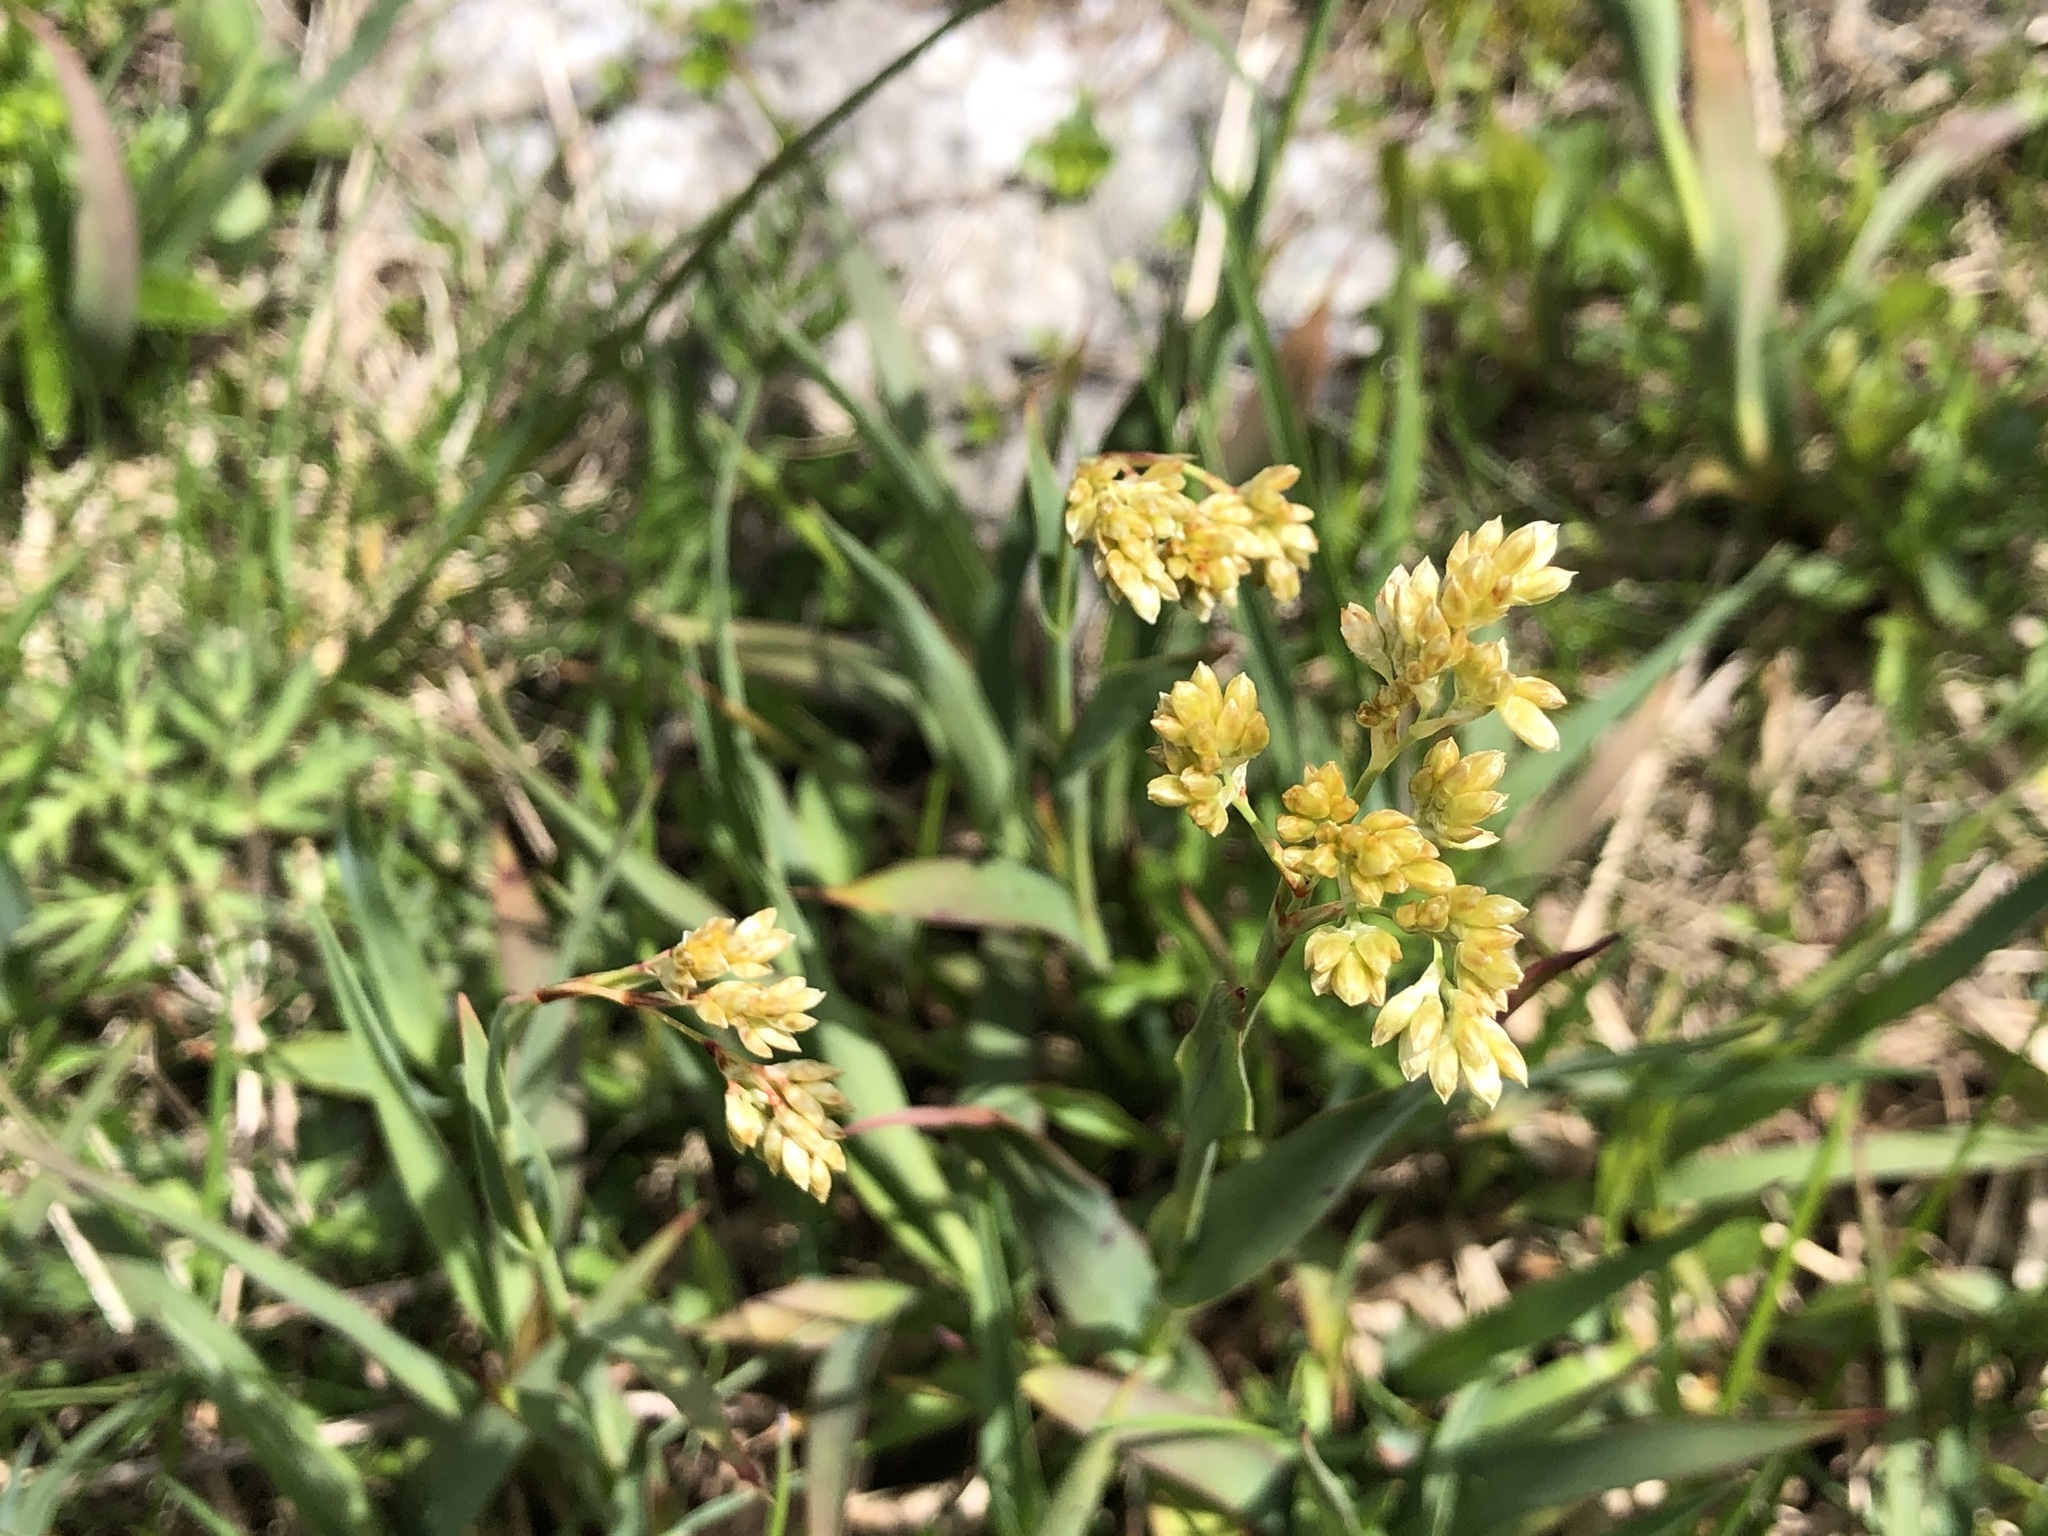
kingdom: Plantae
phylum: Tracheophyta
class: Liliopsida
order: Poales
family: Juncaceae
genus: Luzula
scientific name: Luzula lutea
